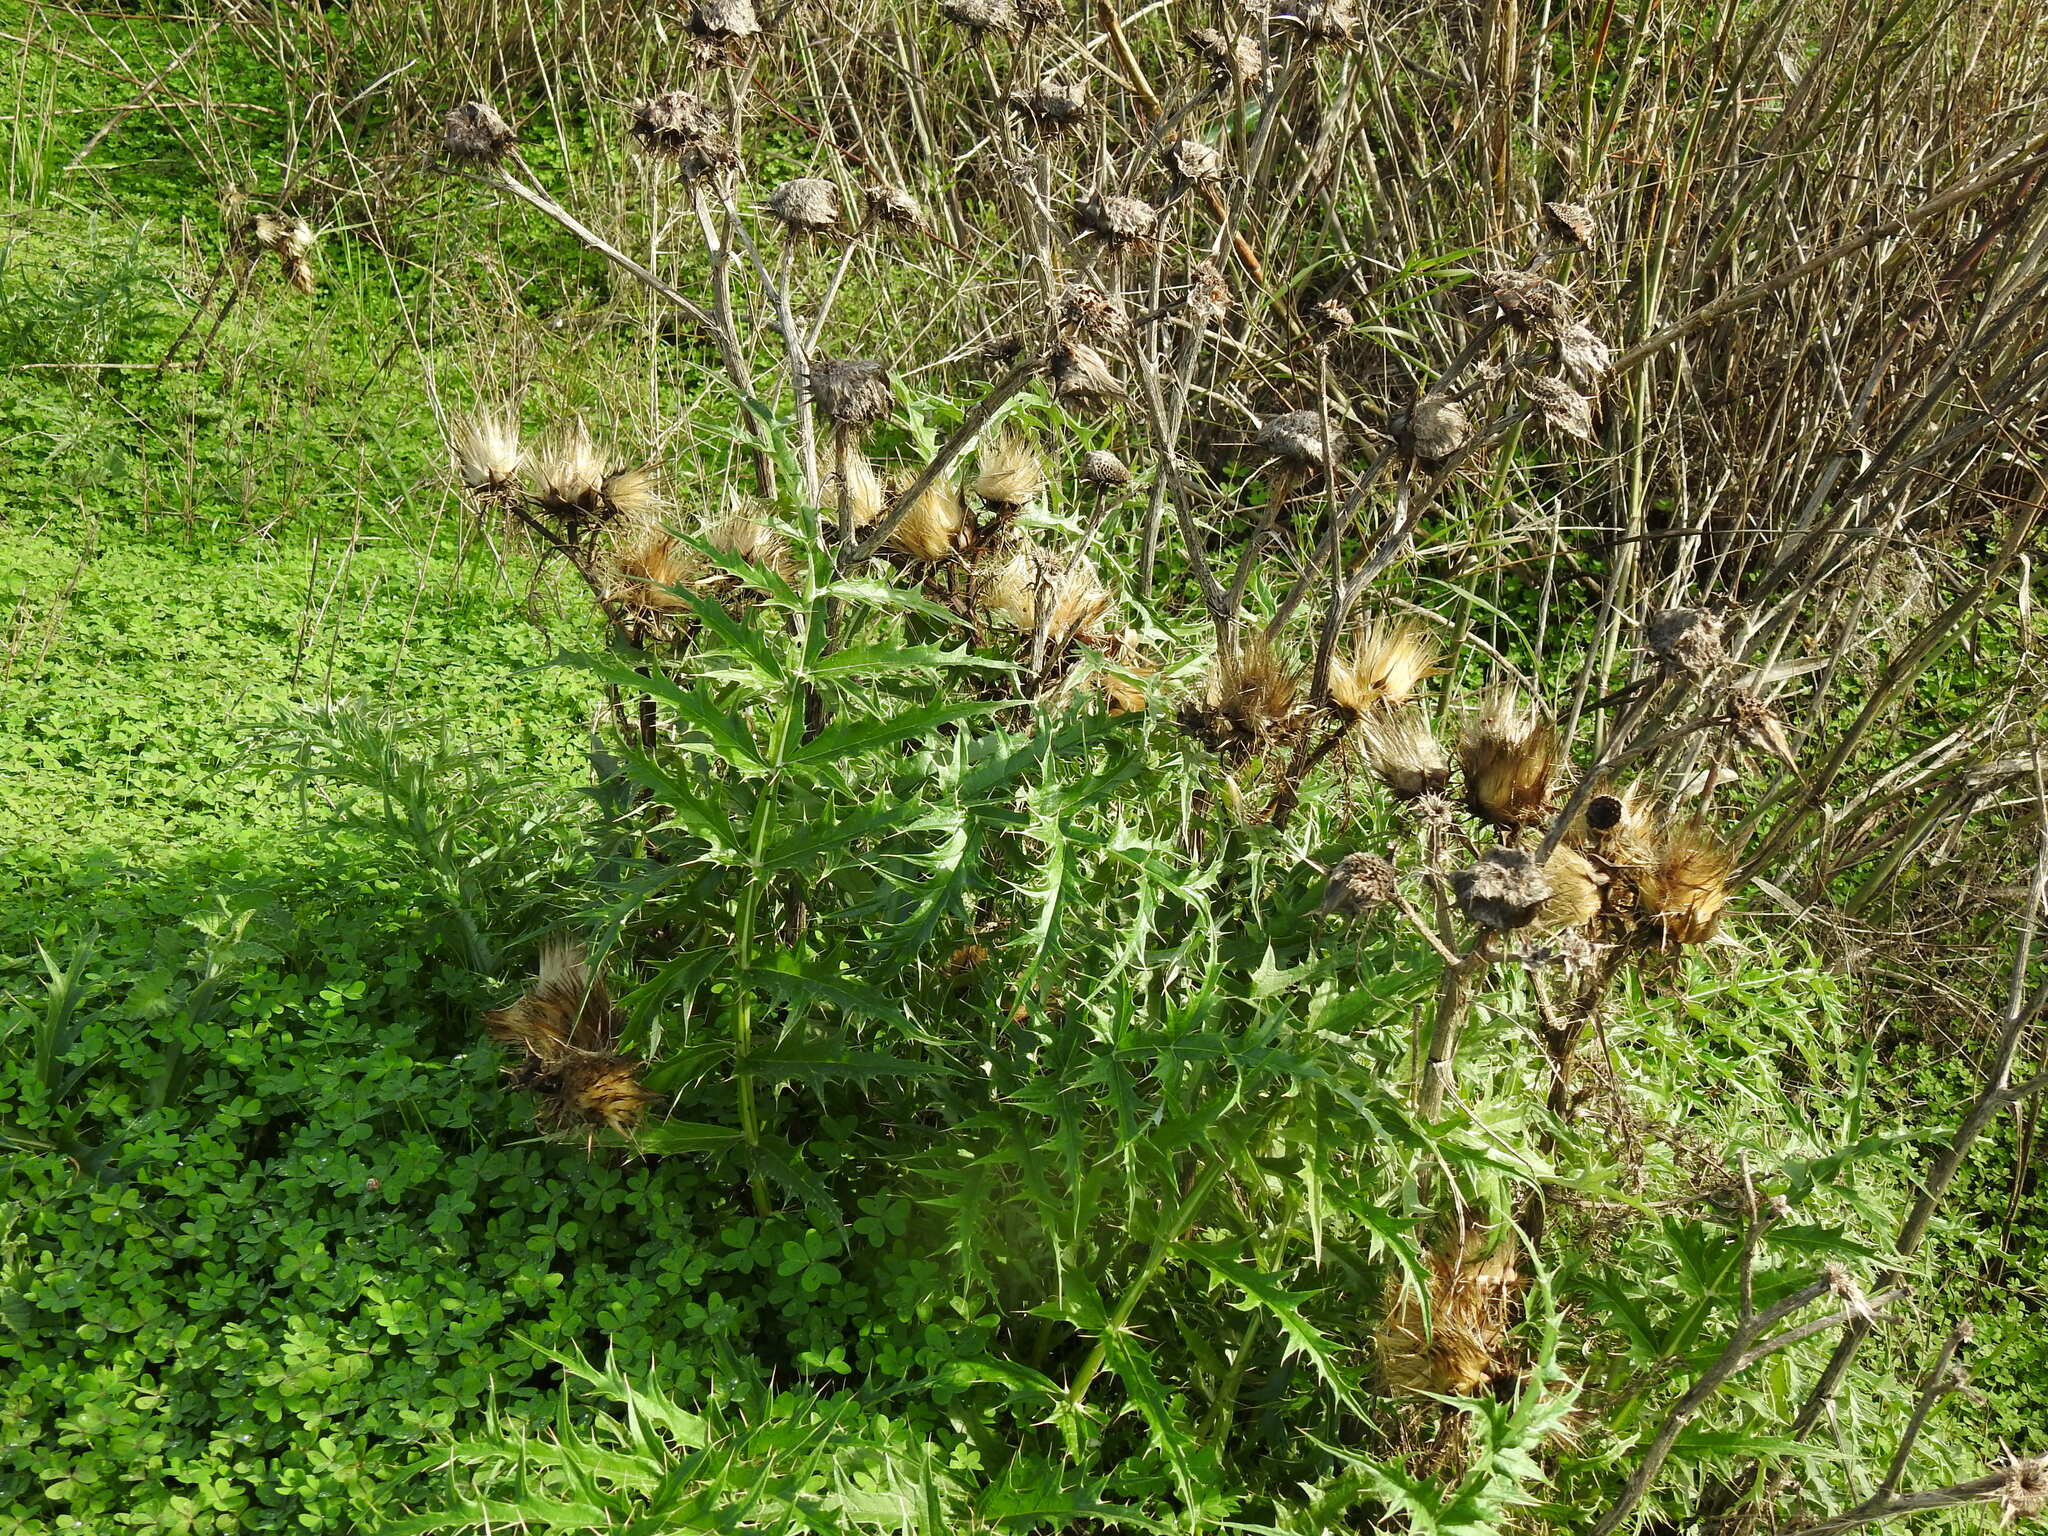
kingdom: Plantae
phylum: Tracheophyta
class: Magnoliopsida
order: Asterales
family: Asteraceae
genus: Cynara
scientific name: Cynara cardunculus
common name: Globe artichoke
